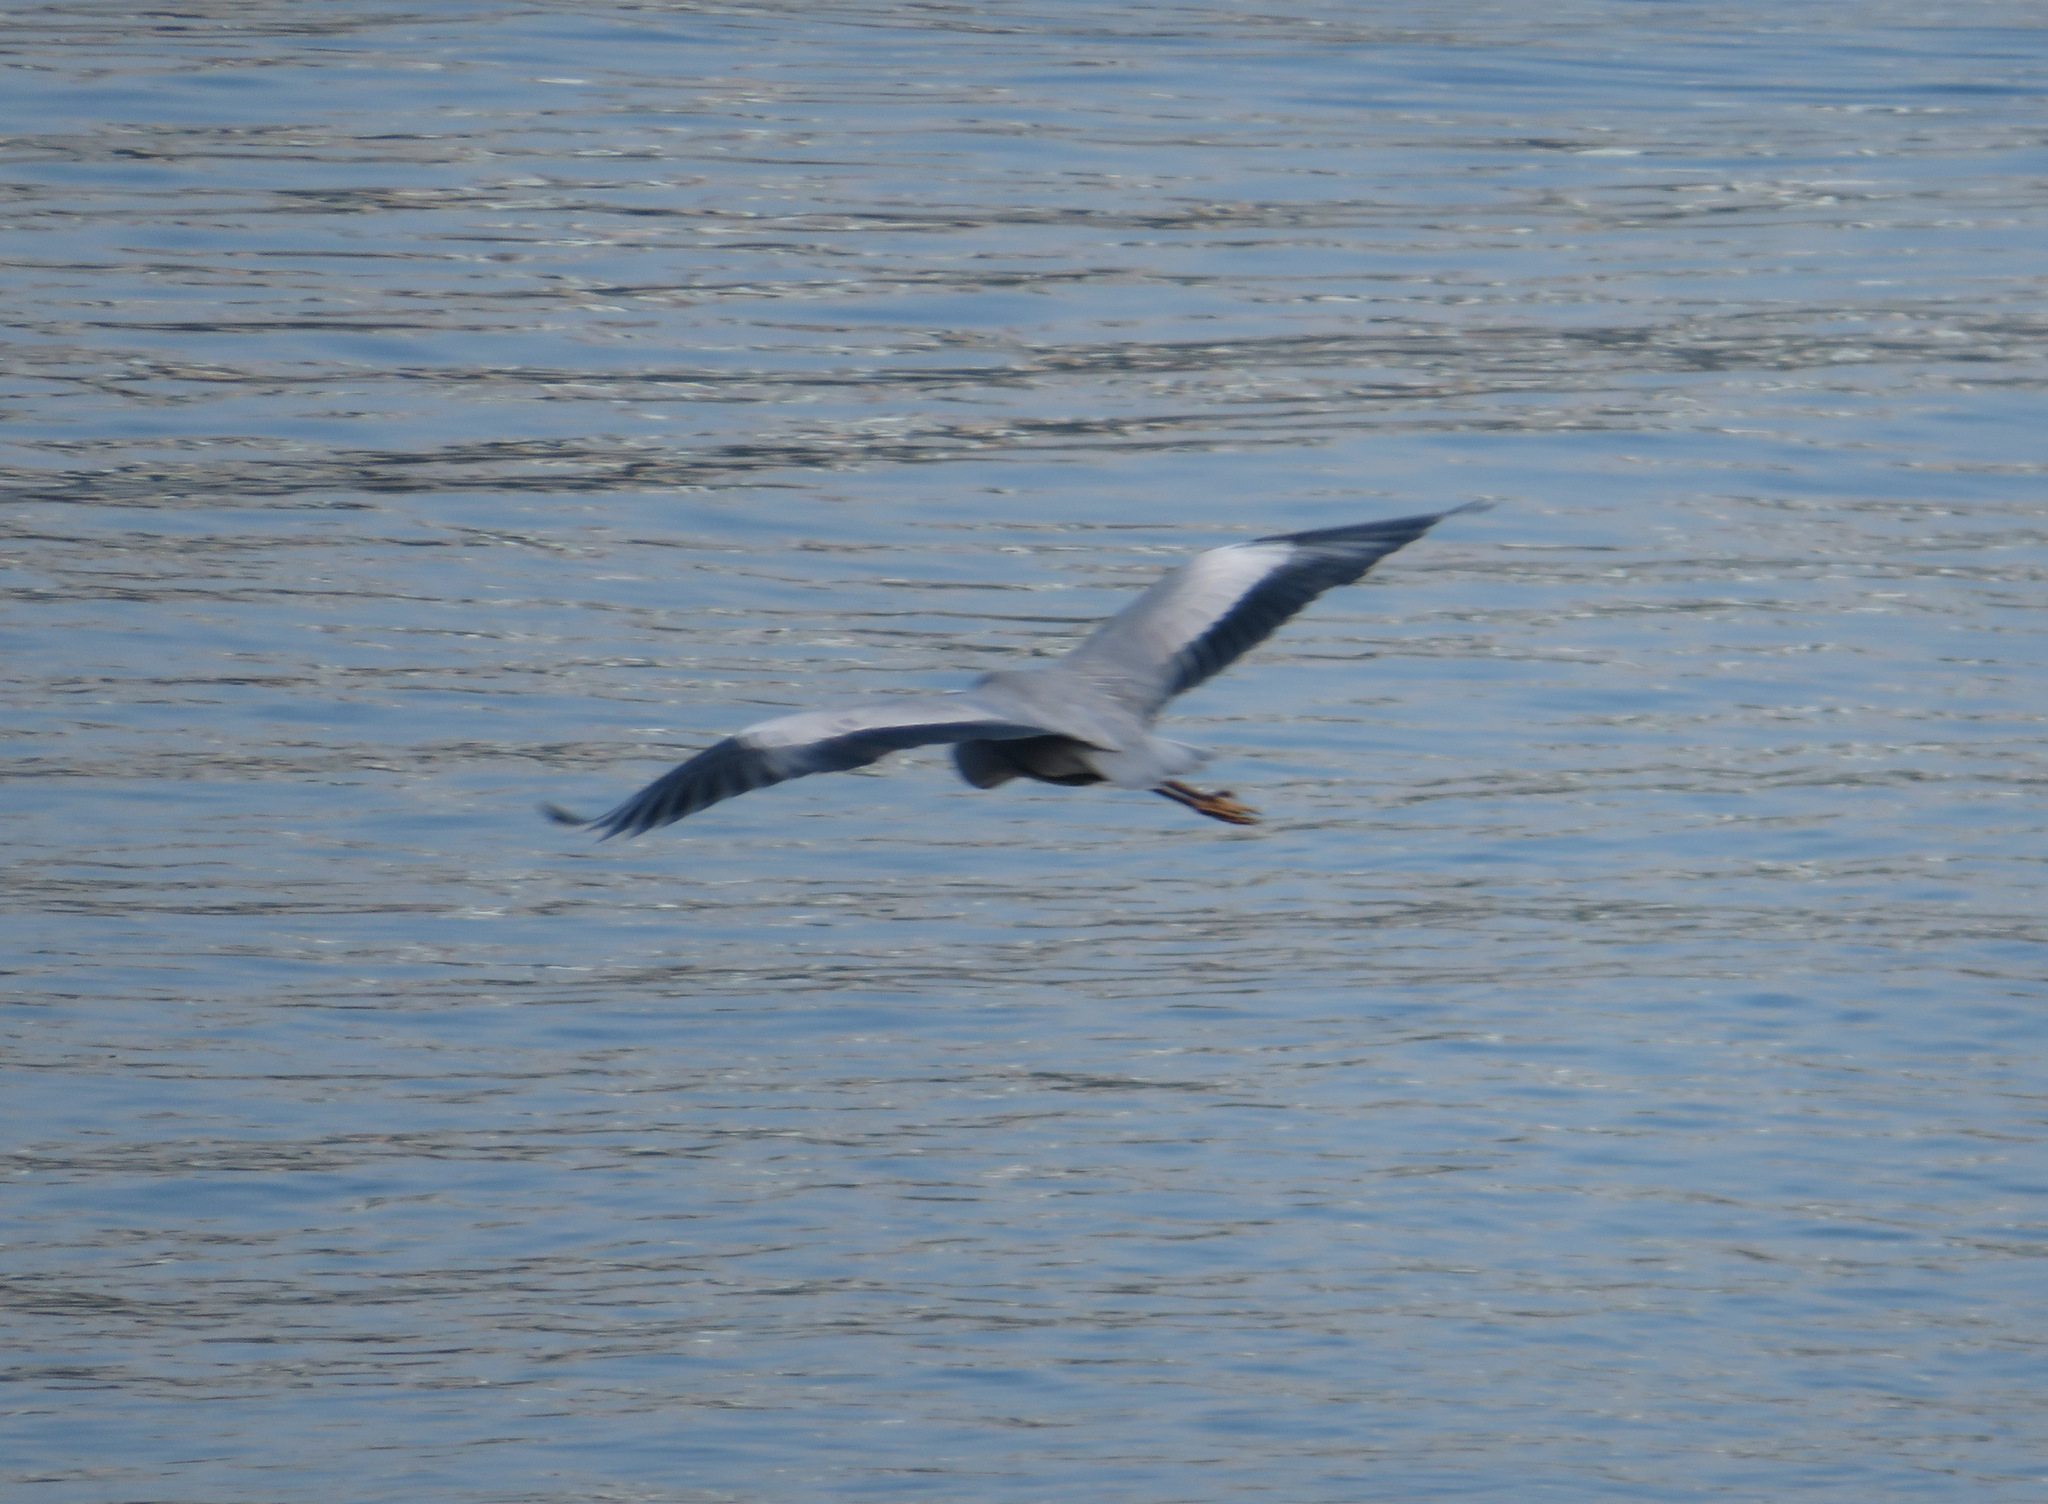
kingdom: Animalia
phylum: Chordata
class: Aves
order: Pelecaniformes
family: Ardeidae
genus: Ardea
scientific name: Ardea cinerea
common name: Grey heron
